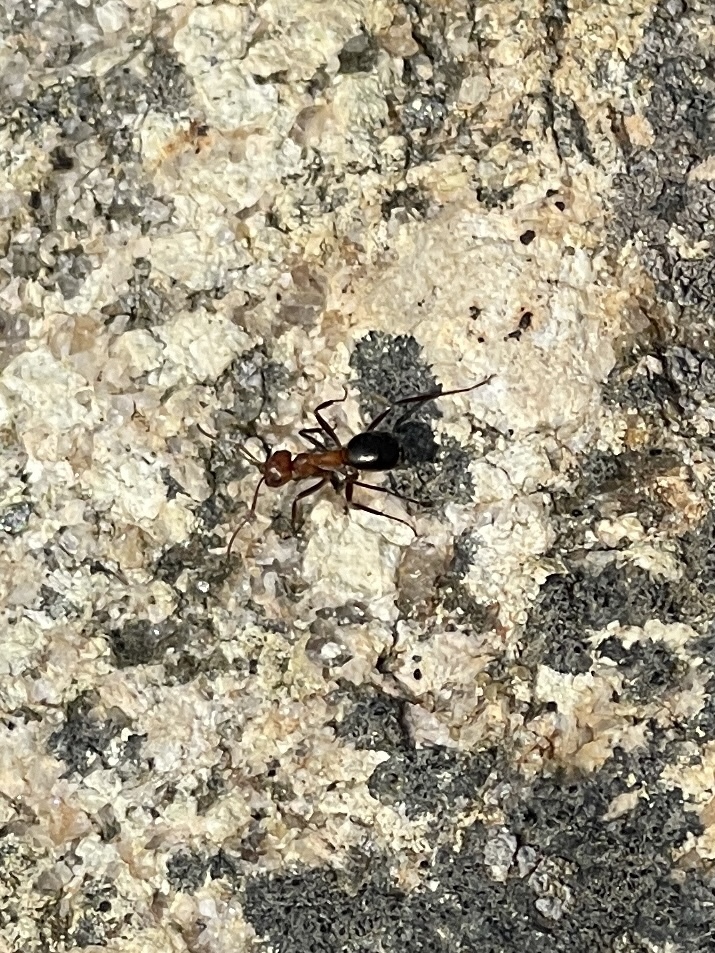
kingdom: Animalia
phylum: Arthropoda
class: Insecta
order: Hymenoptera
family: Formicidae
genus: Formica
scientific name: Formica exsectoides
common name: Allegheny mound ant
